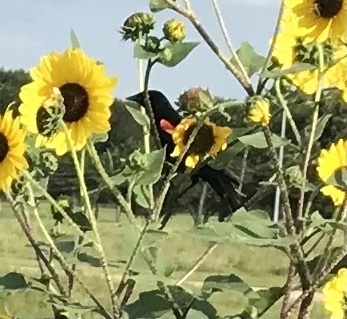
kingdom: Animalia
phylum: Chordata
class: Aves
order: Passeriformes
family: Icteridae
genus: Agelaius
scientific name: Agelaius phoeniceus
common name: Red-winged blackbird
